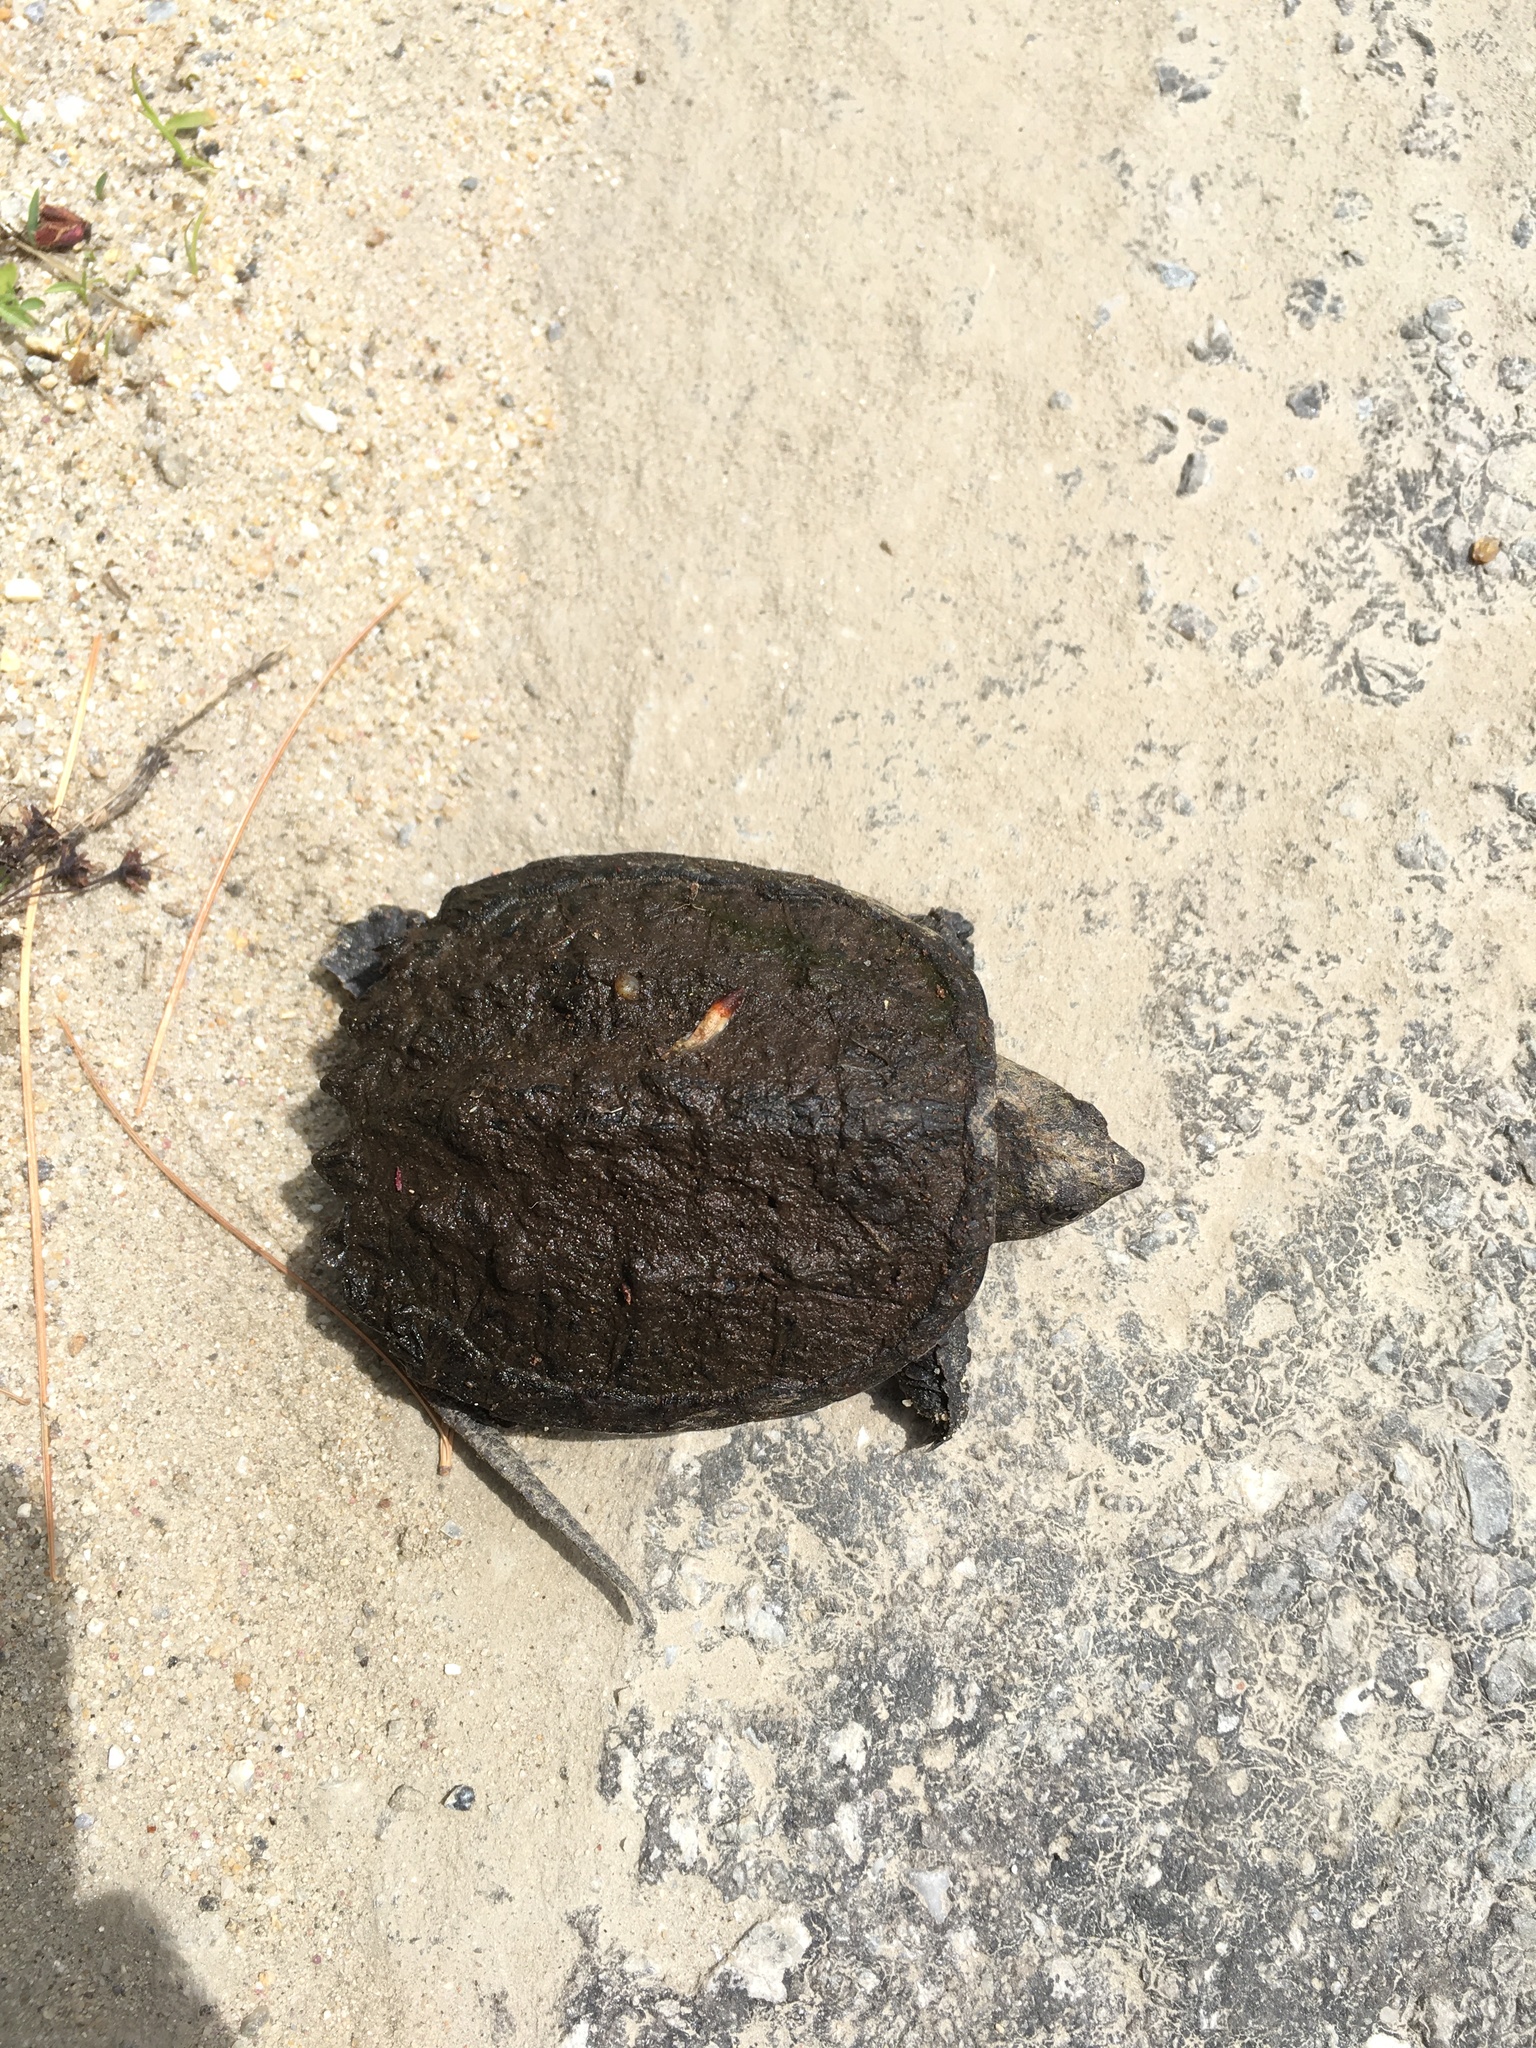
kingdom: Animalia
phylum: Chordata
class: Testudines
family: Chelydridae
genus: Chelydra
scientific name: Chelydra serpentina
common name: Common snapping turtle
